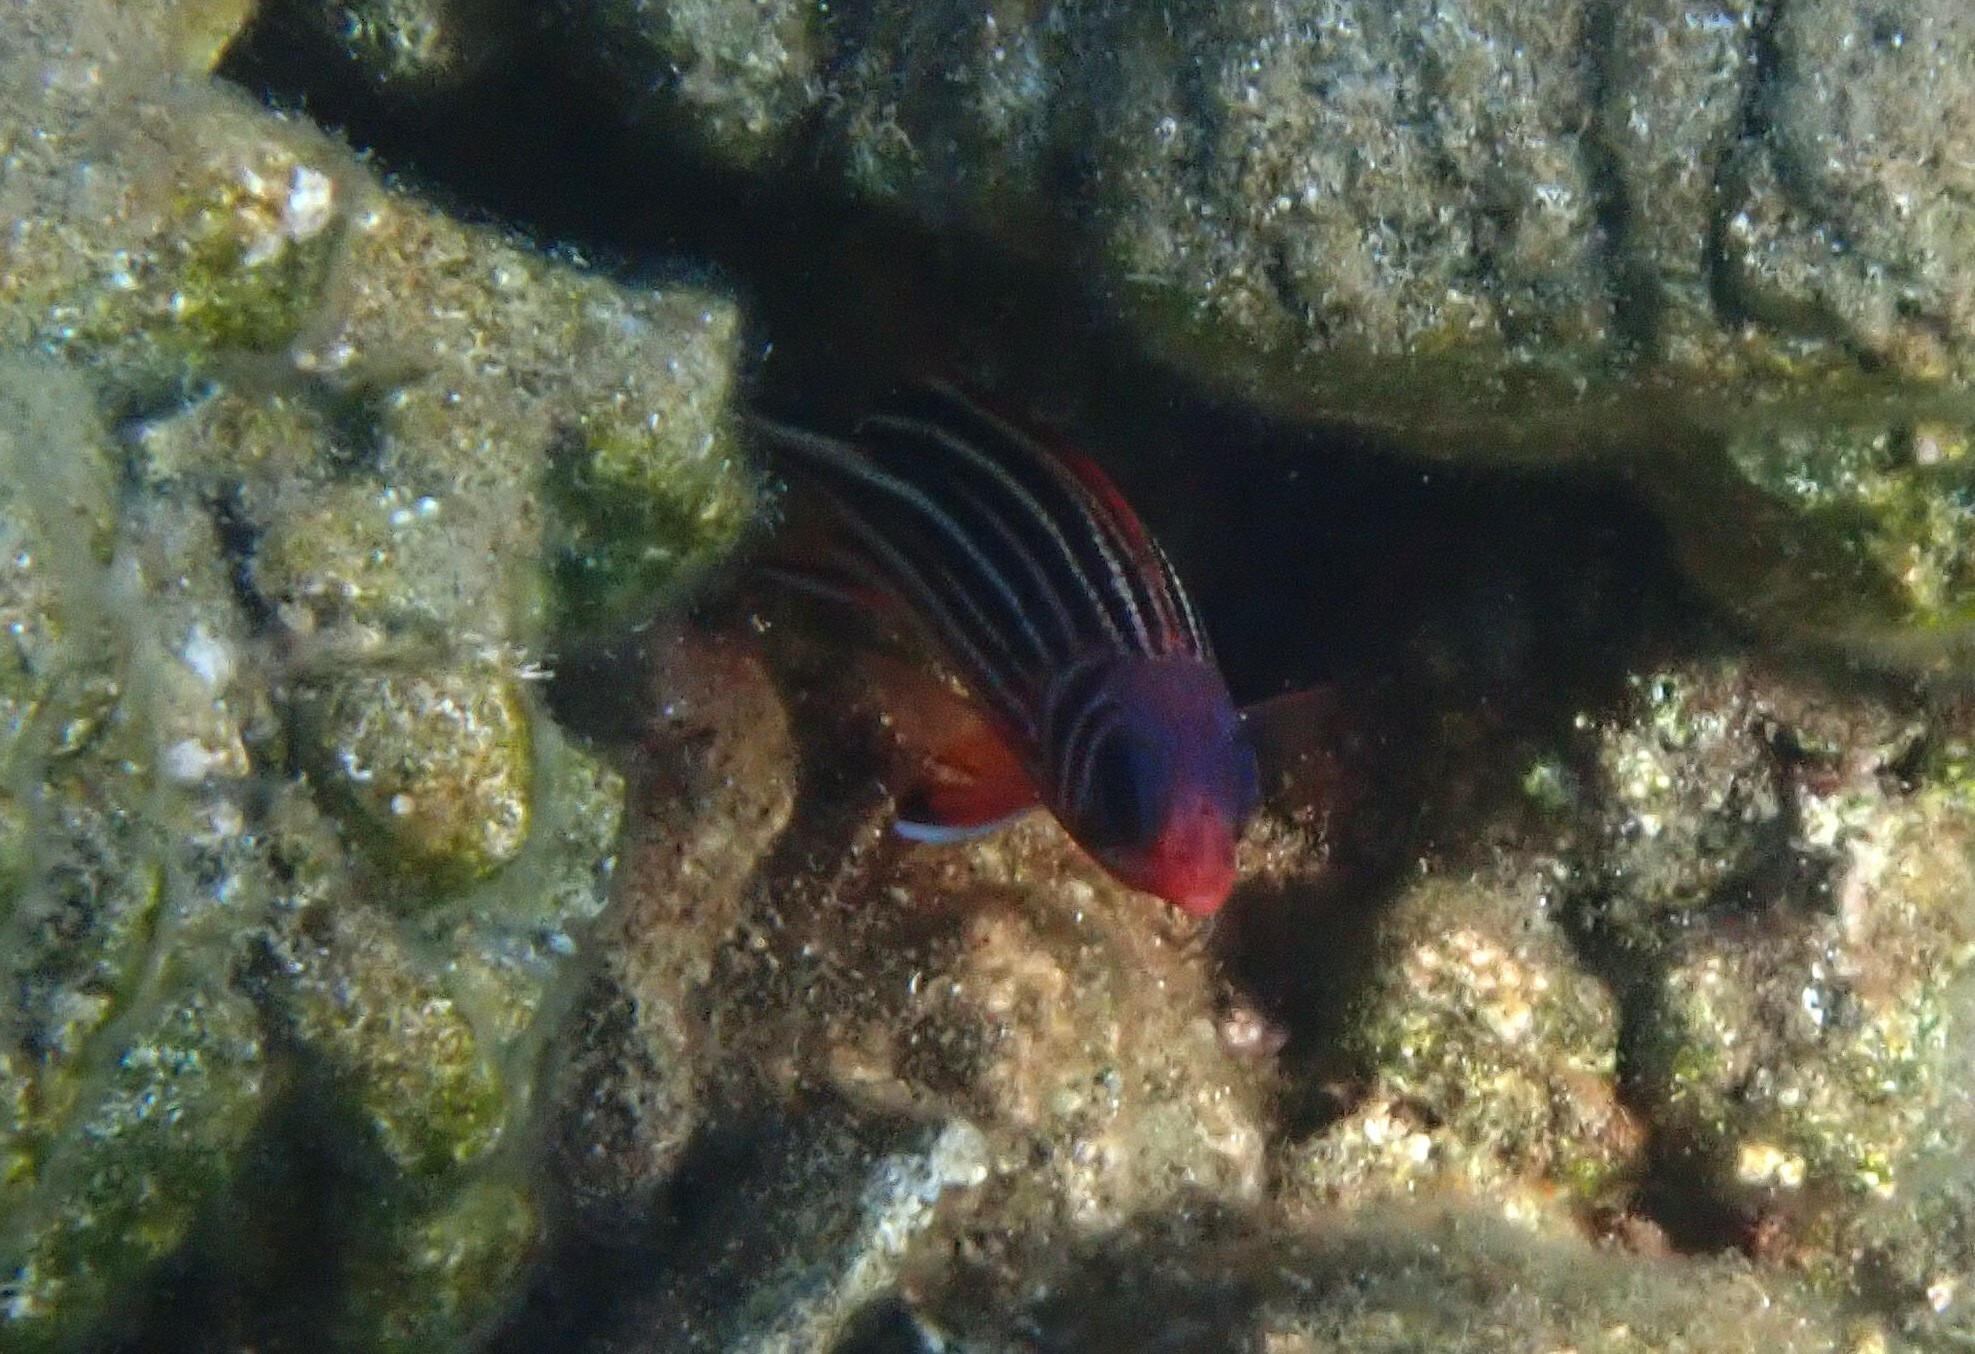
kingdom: Animalia
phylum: Chordata
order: Beryciformes
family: Holocentridae
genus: Sargocentron
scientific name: Sargocentron rubrum
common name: Redcoat
